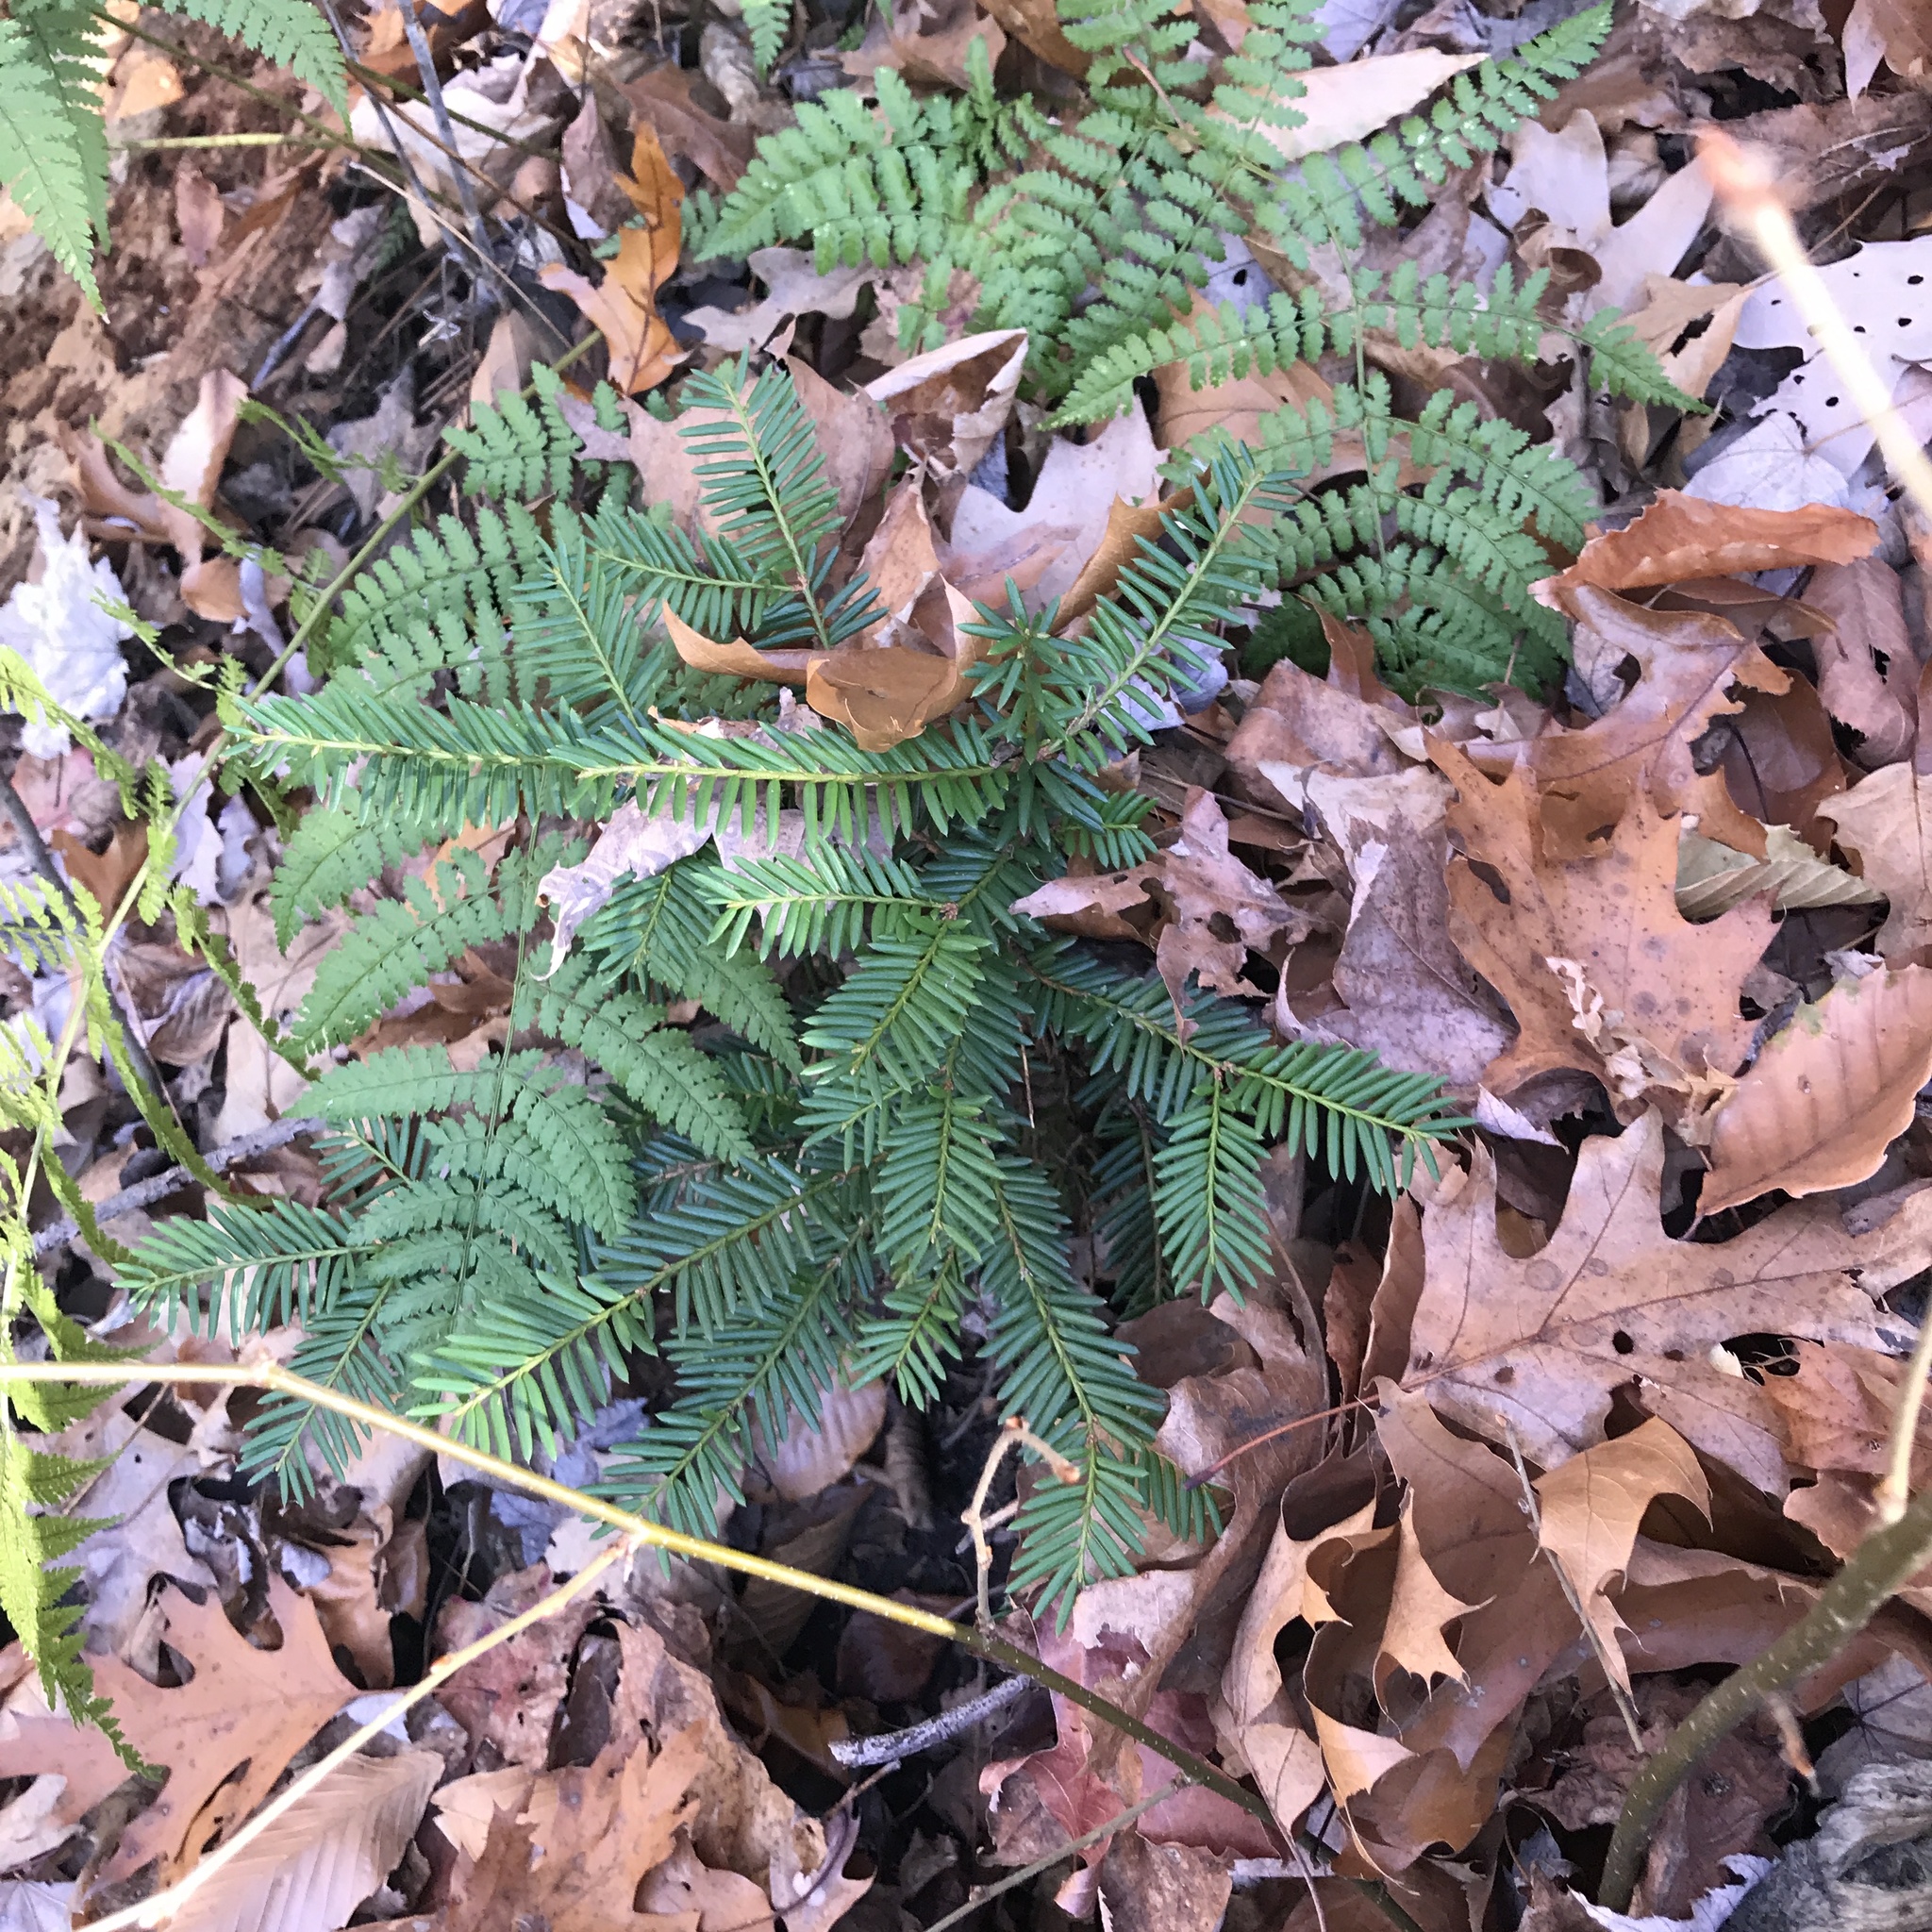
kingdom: Plantae
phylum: Tracheophyta
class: Pinopsida
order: Pinales
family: Taxaceae
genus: Taxus
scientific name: Taxus canadensis
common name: American yew
